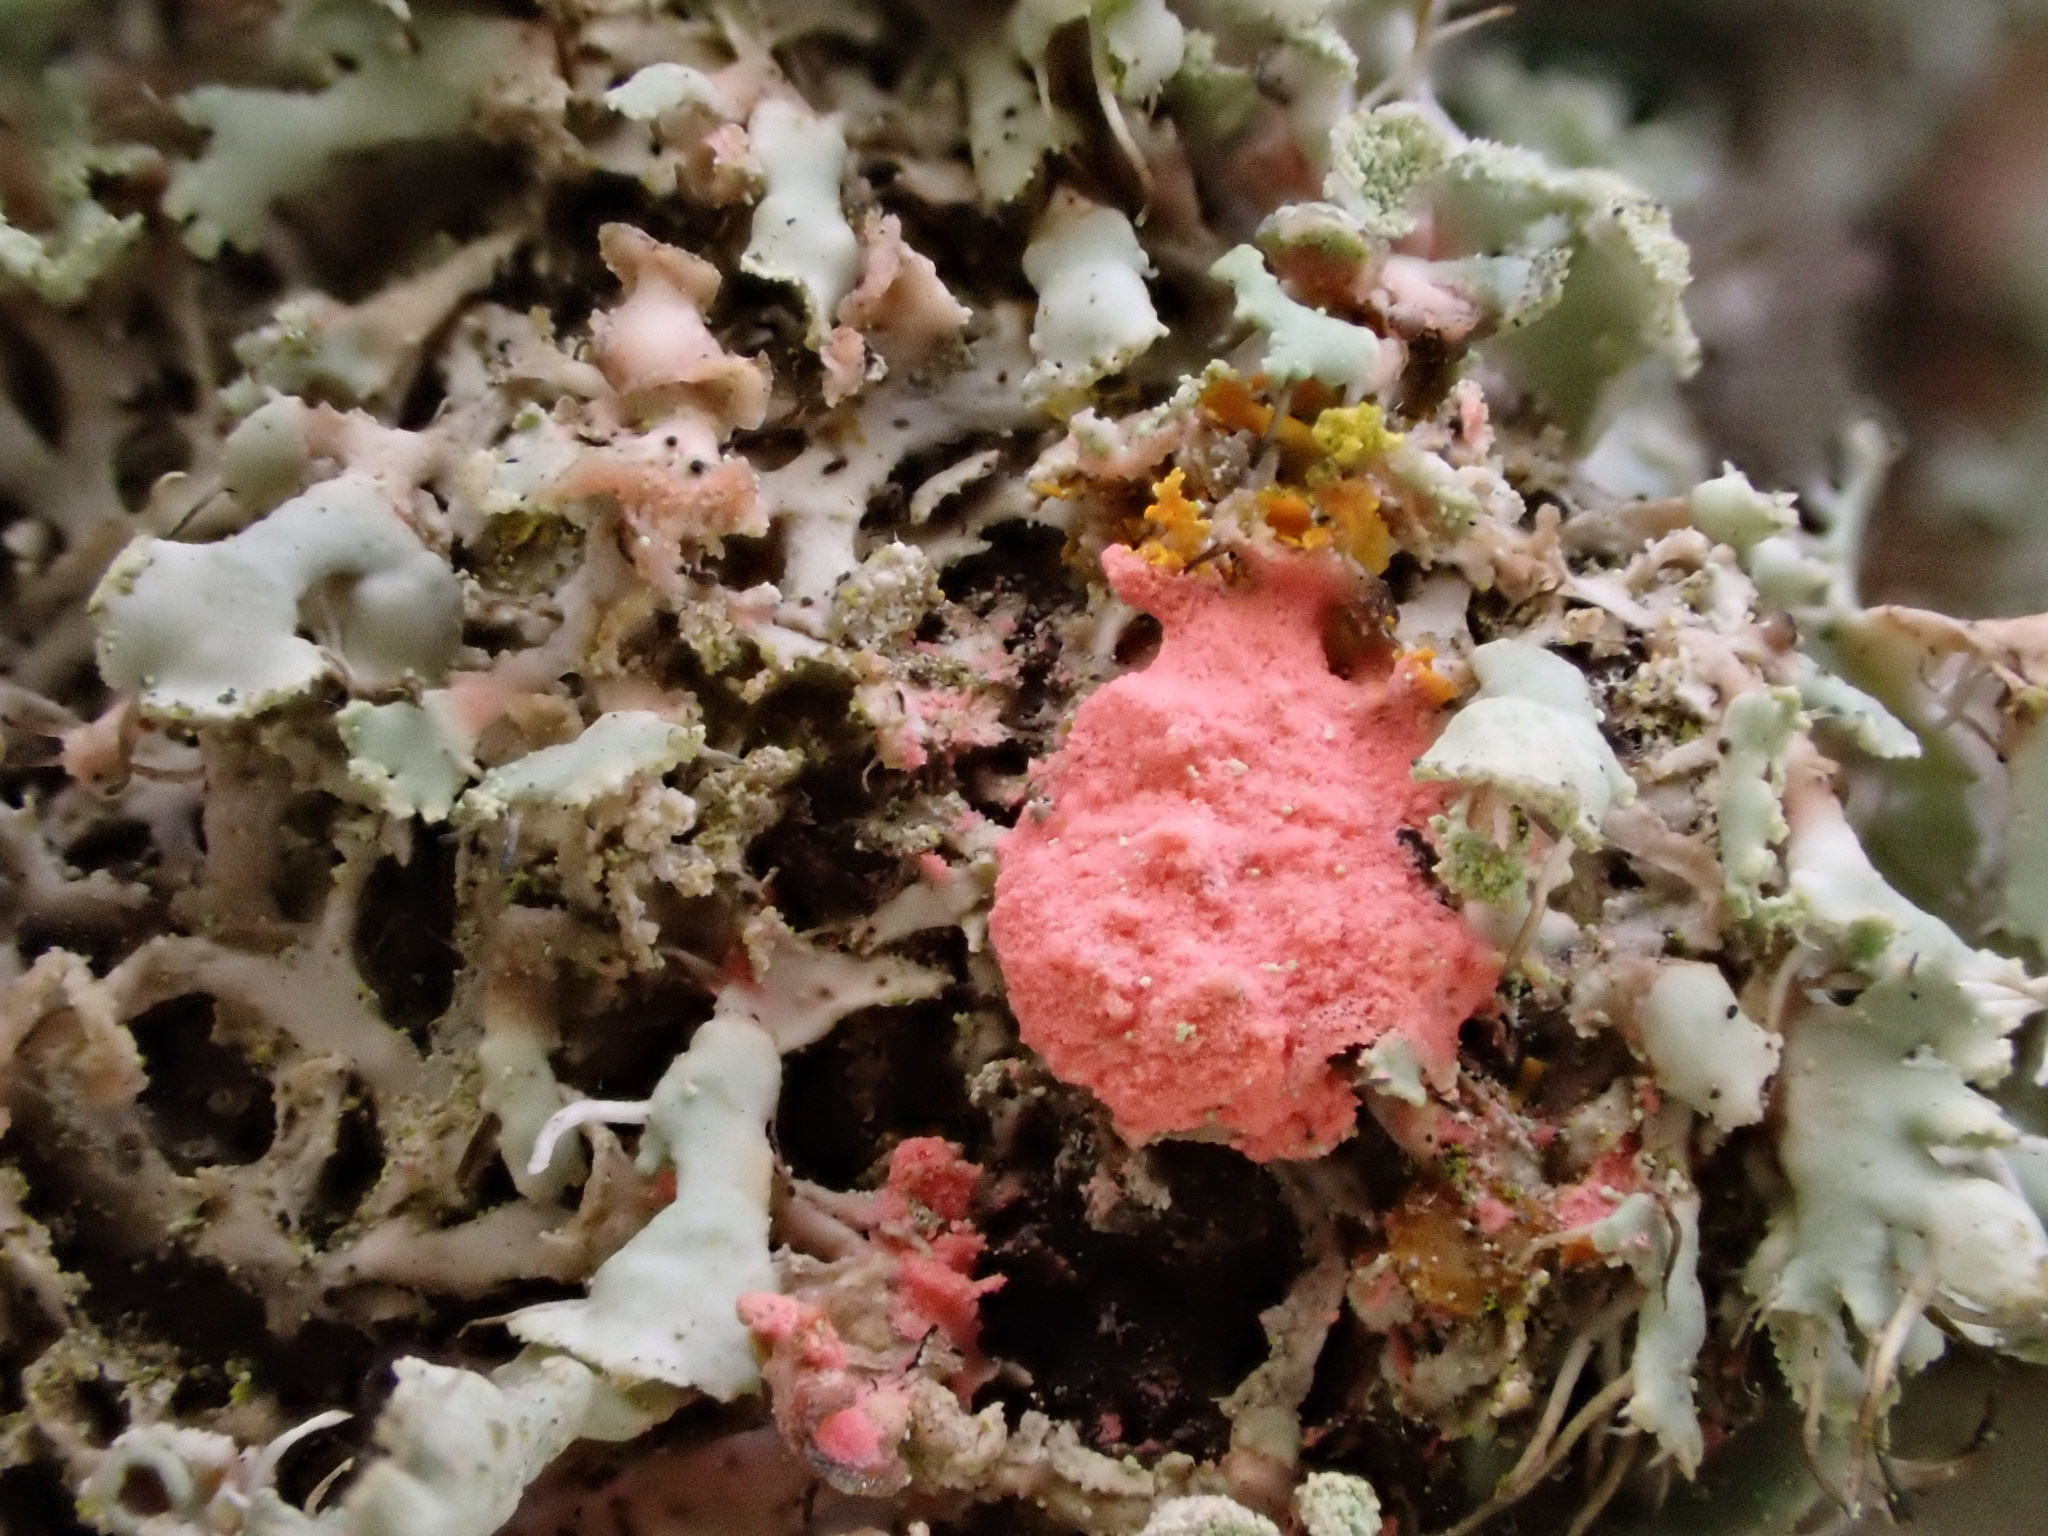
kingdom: Fungi
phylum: Ascomycota
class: Sordariomycetes
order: Hypocreales
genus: Illosporiopsis
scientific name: Illosporiopsis christiansenii
